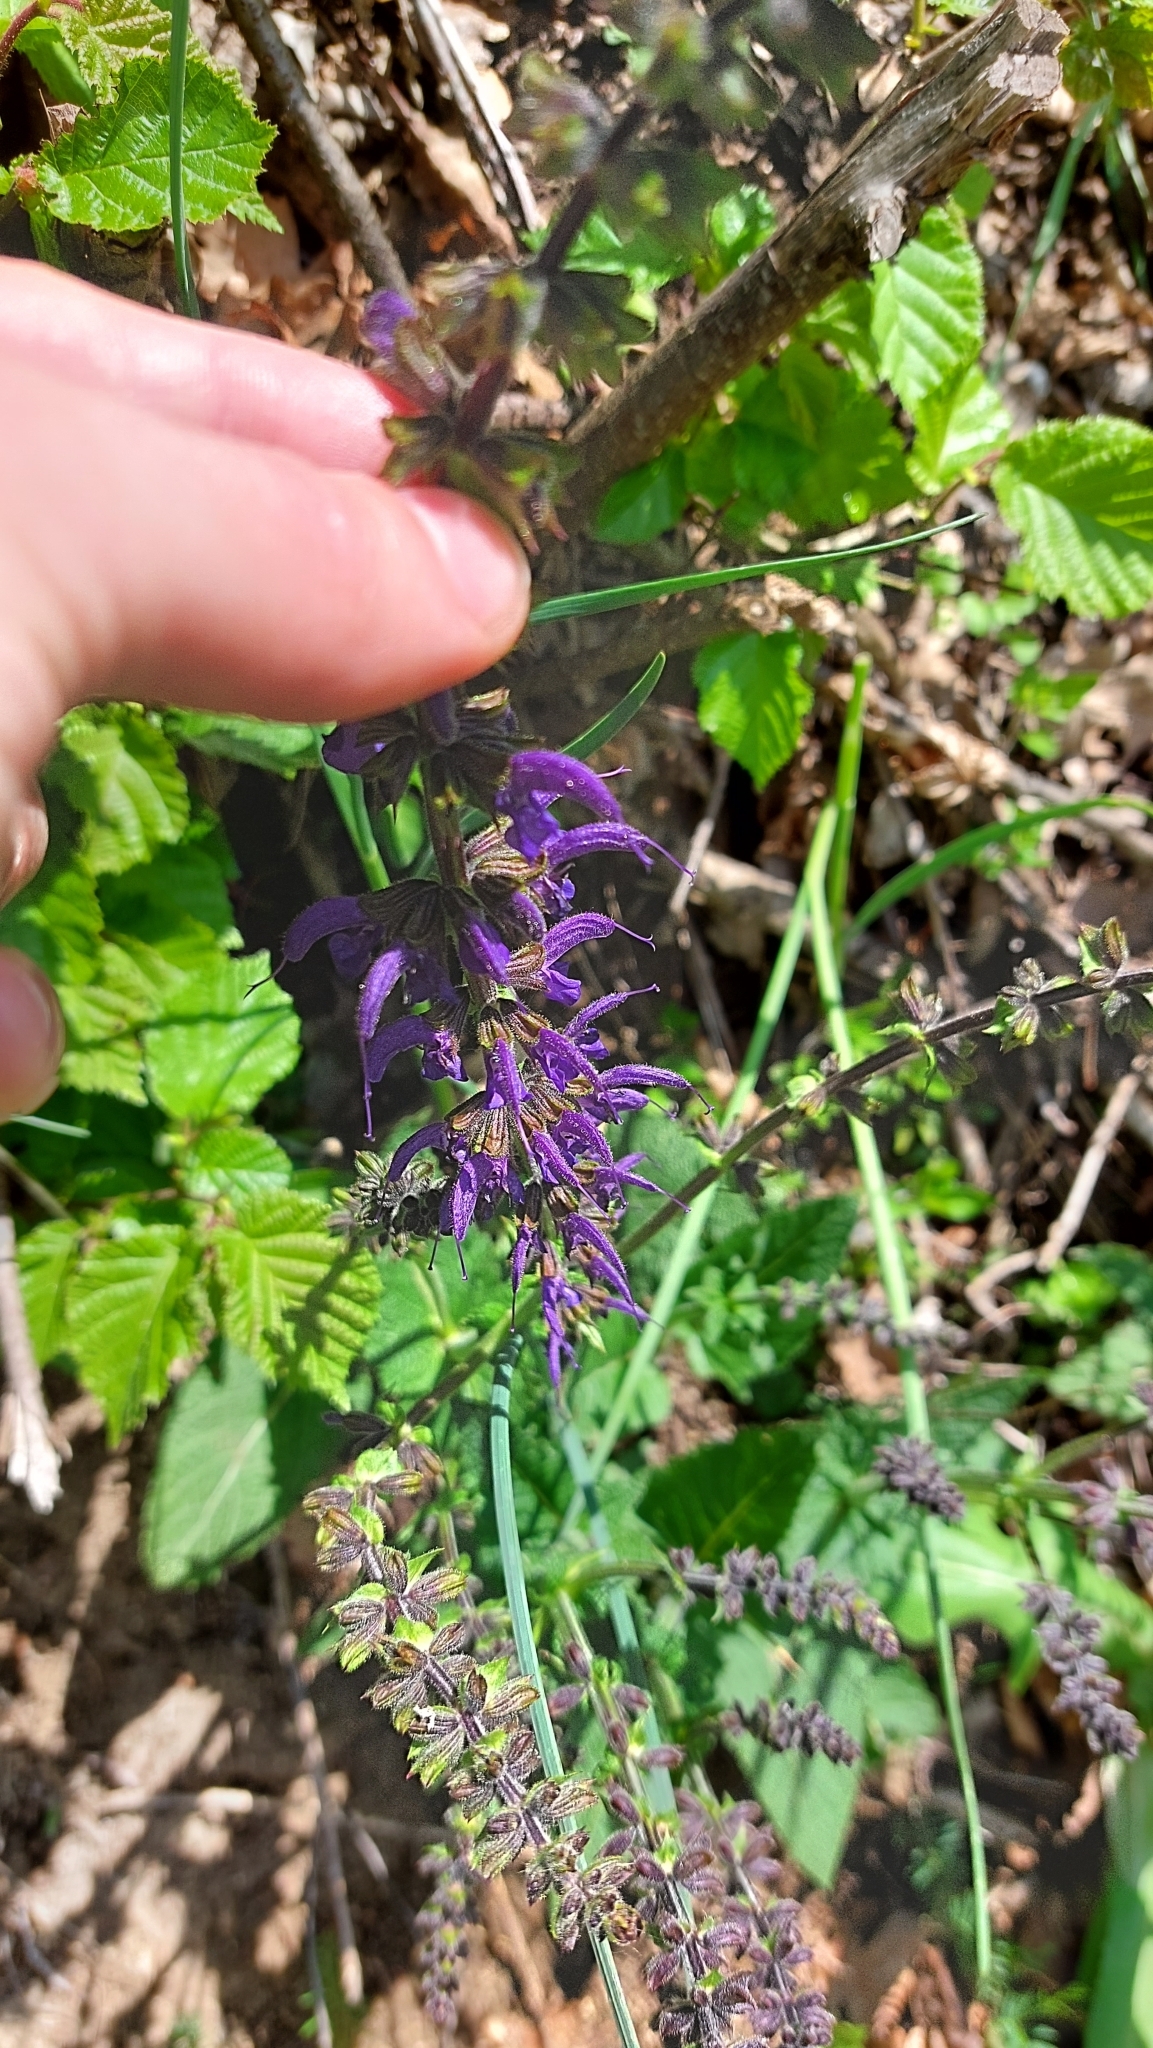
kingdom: Plantae
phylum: Tracheophyta
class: Magnoliopsida
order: Lamiales
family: Lamiaceae
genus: Salvia
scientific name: Salvia pratensis
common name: Meadow sage
